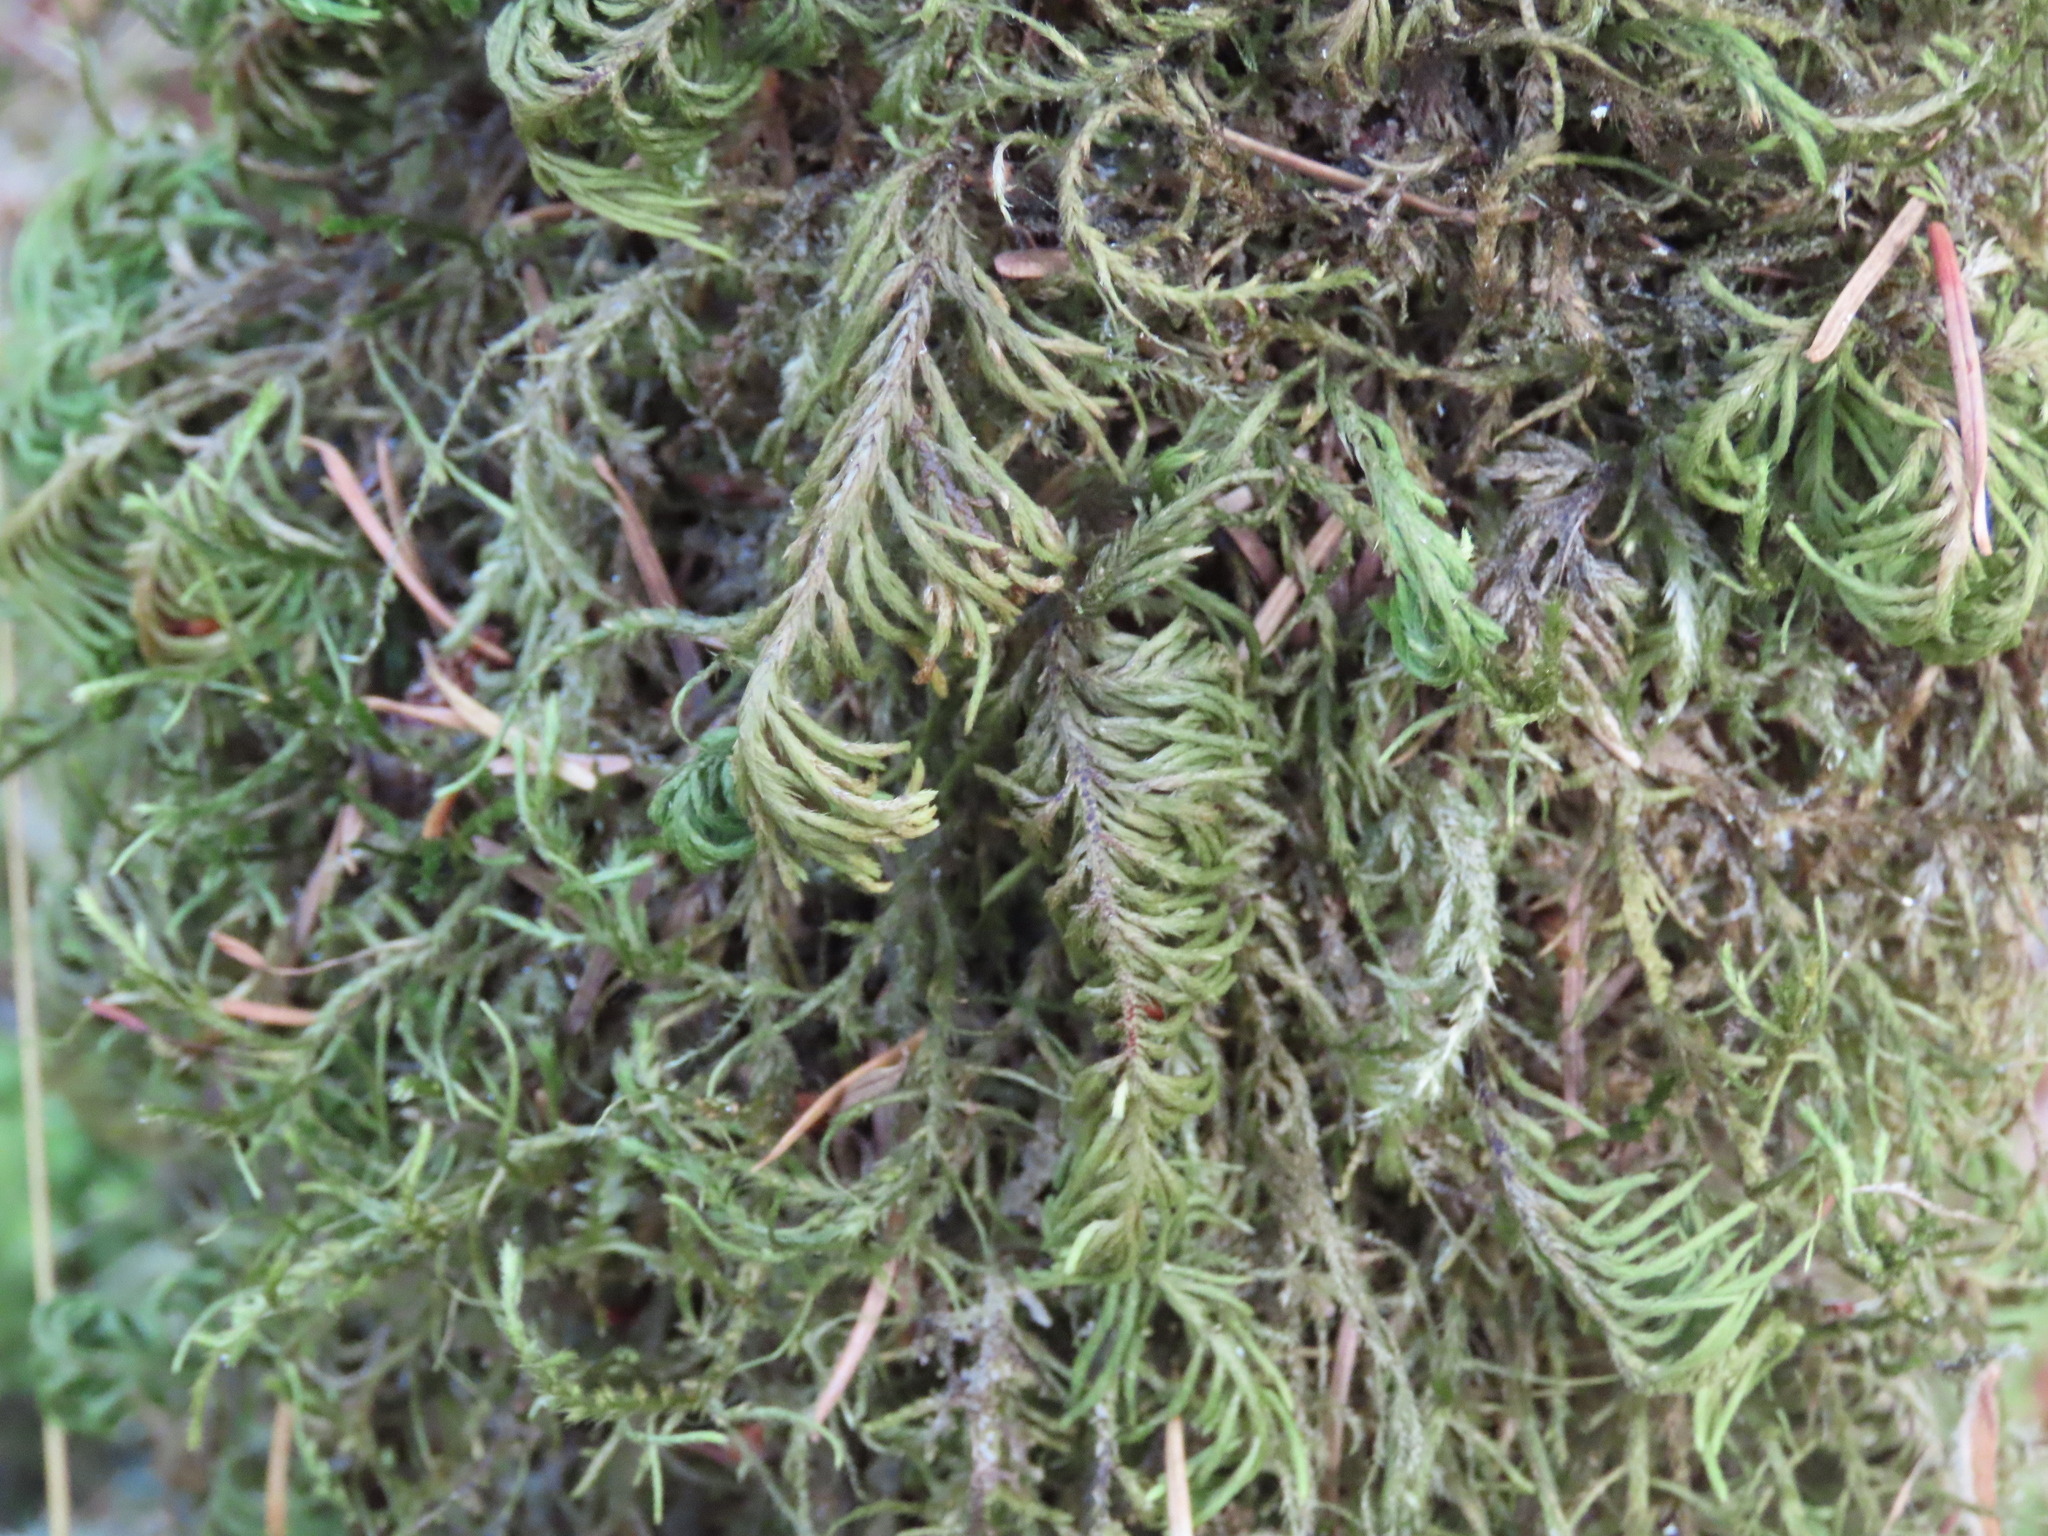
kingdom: Plantae
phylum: Bryophyta
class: Bryopsida
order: Hypnales
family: Cryphaeaceae
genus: Dendroalsia
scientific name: Dendroalsia abietina
